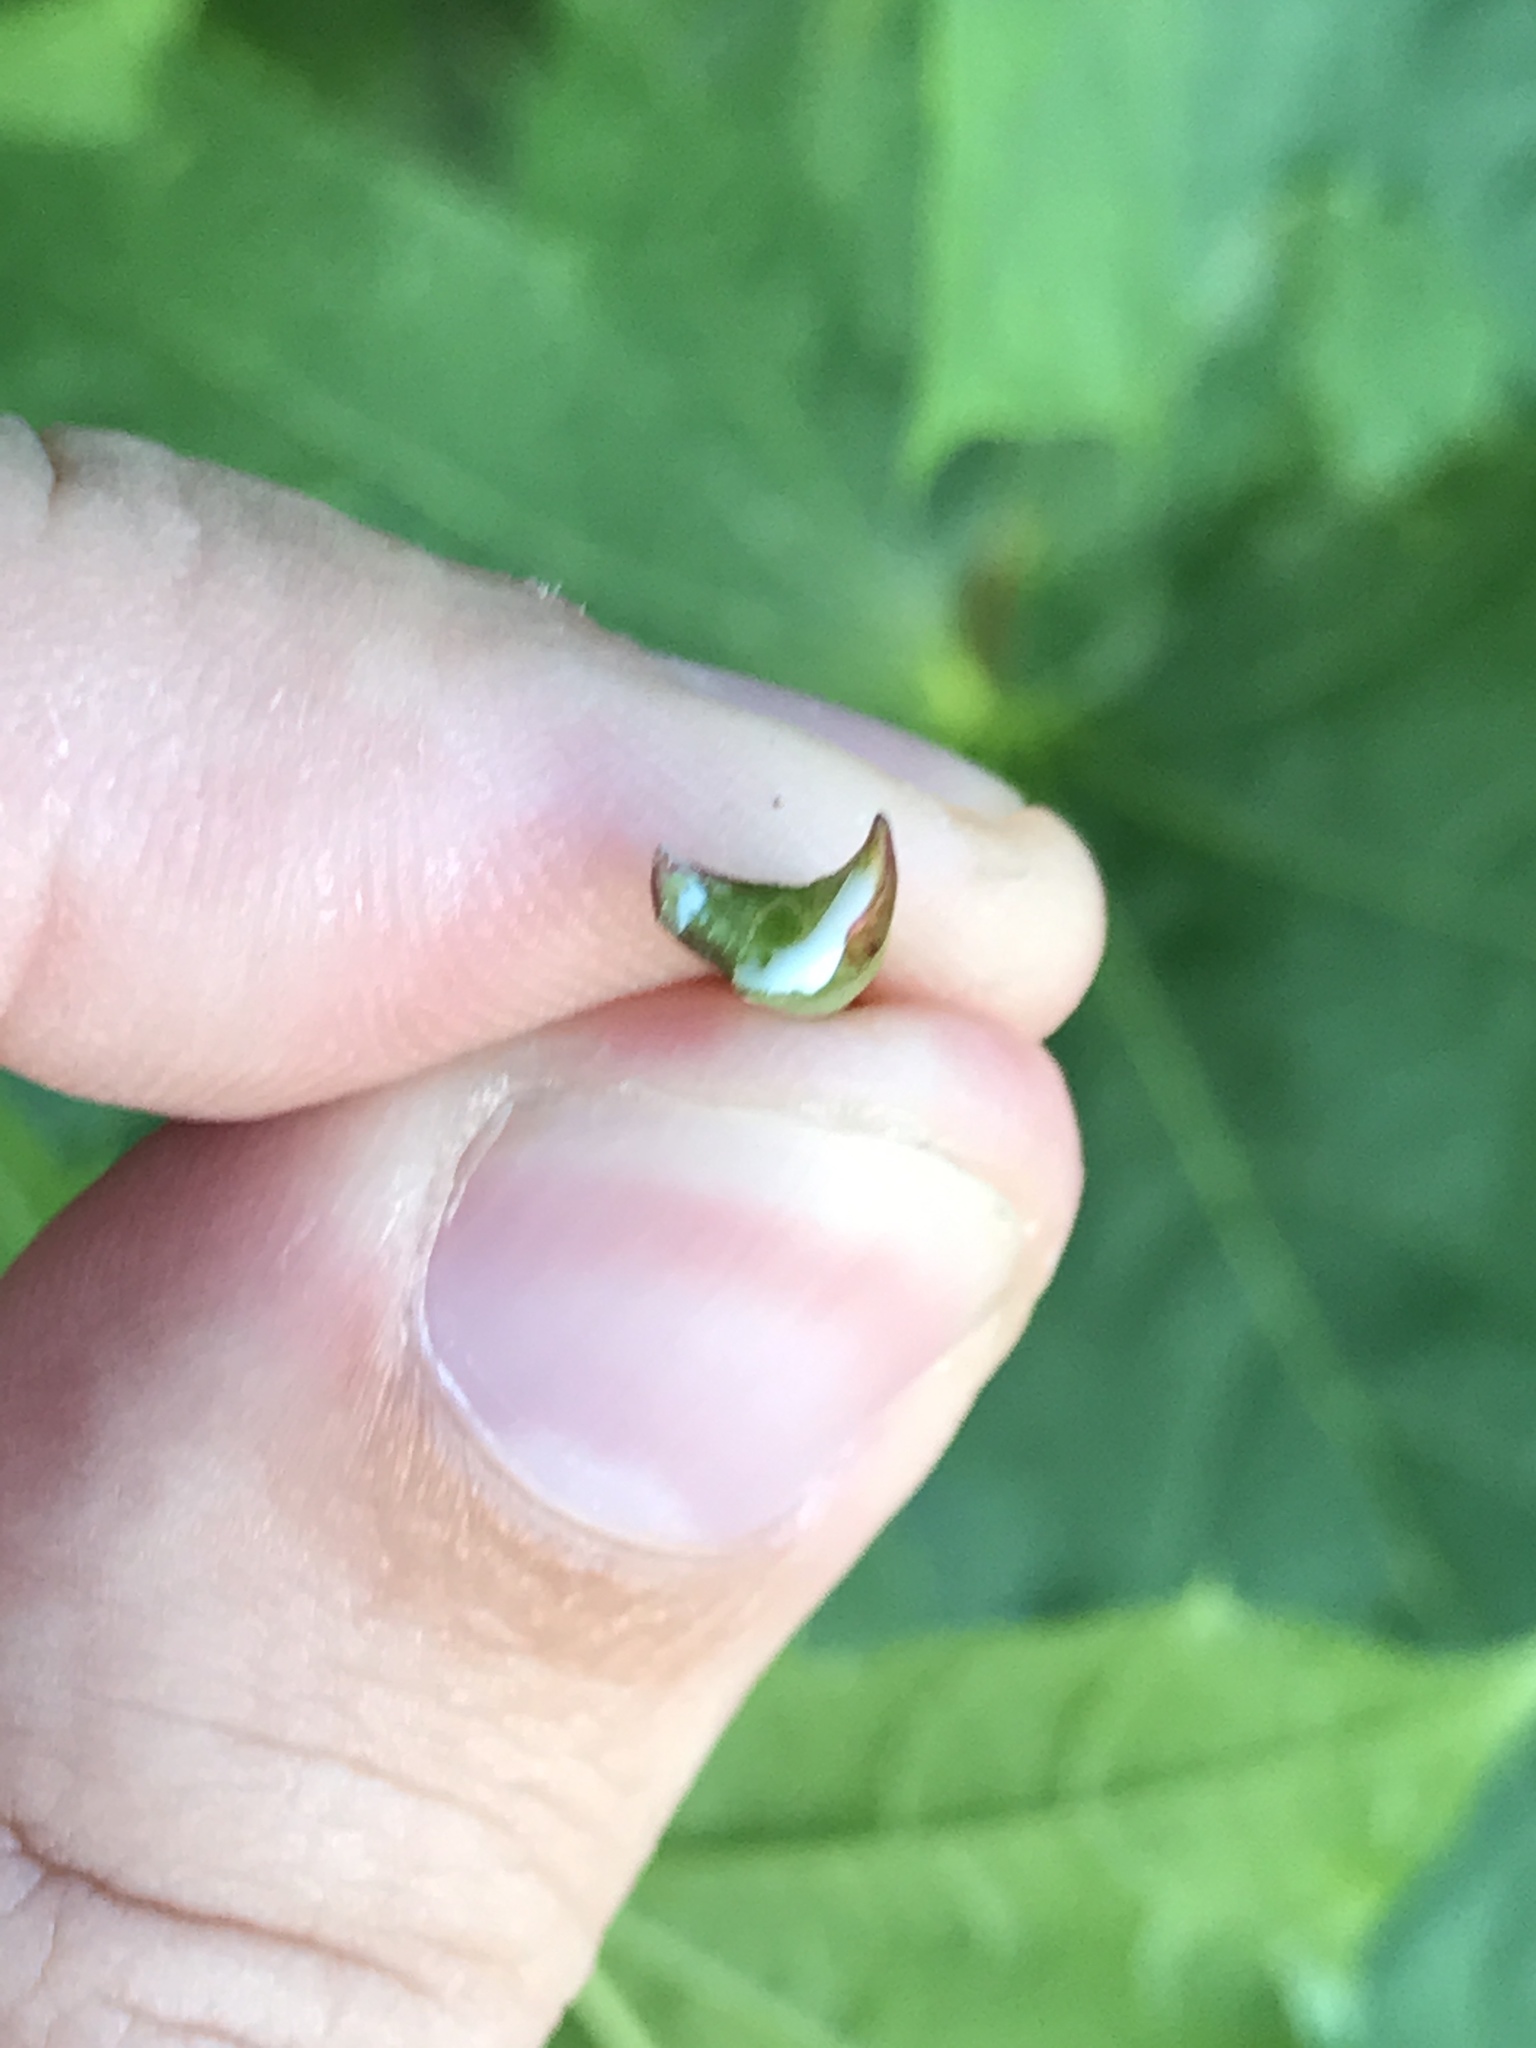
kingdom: Plantae
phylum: Tracheophyta
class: Magnoliopsida
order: Sapindales
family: Sapindaceae
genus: Acer
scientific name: Acer platanoides
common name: Norway maple
